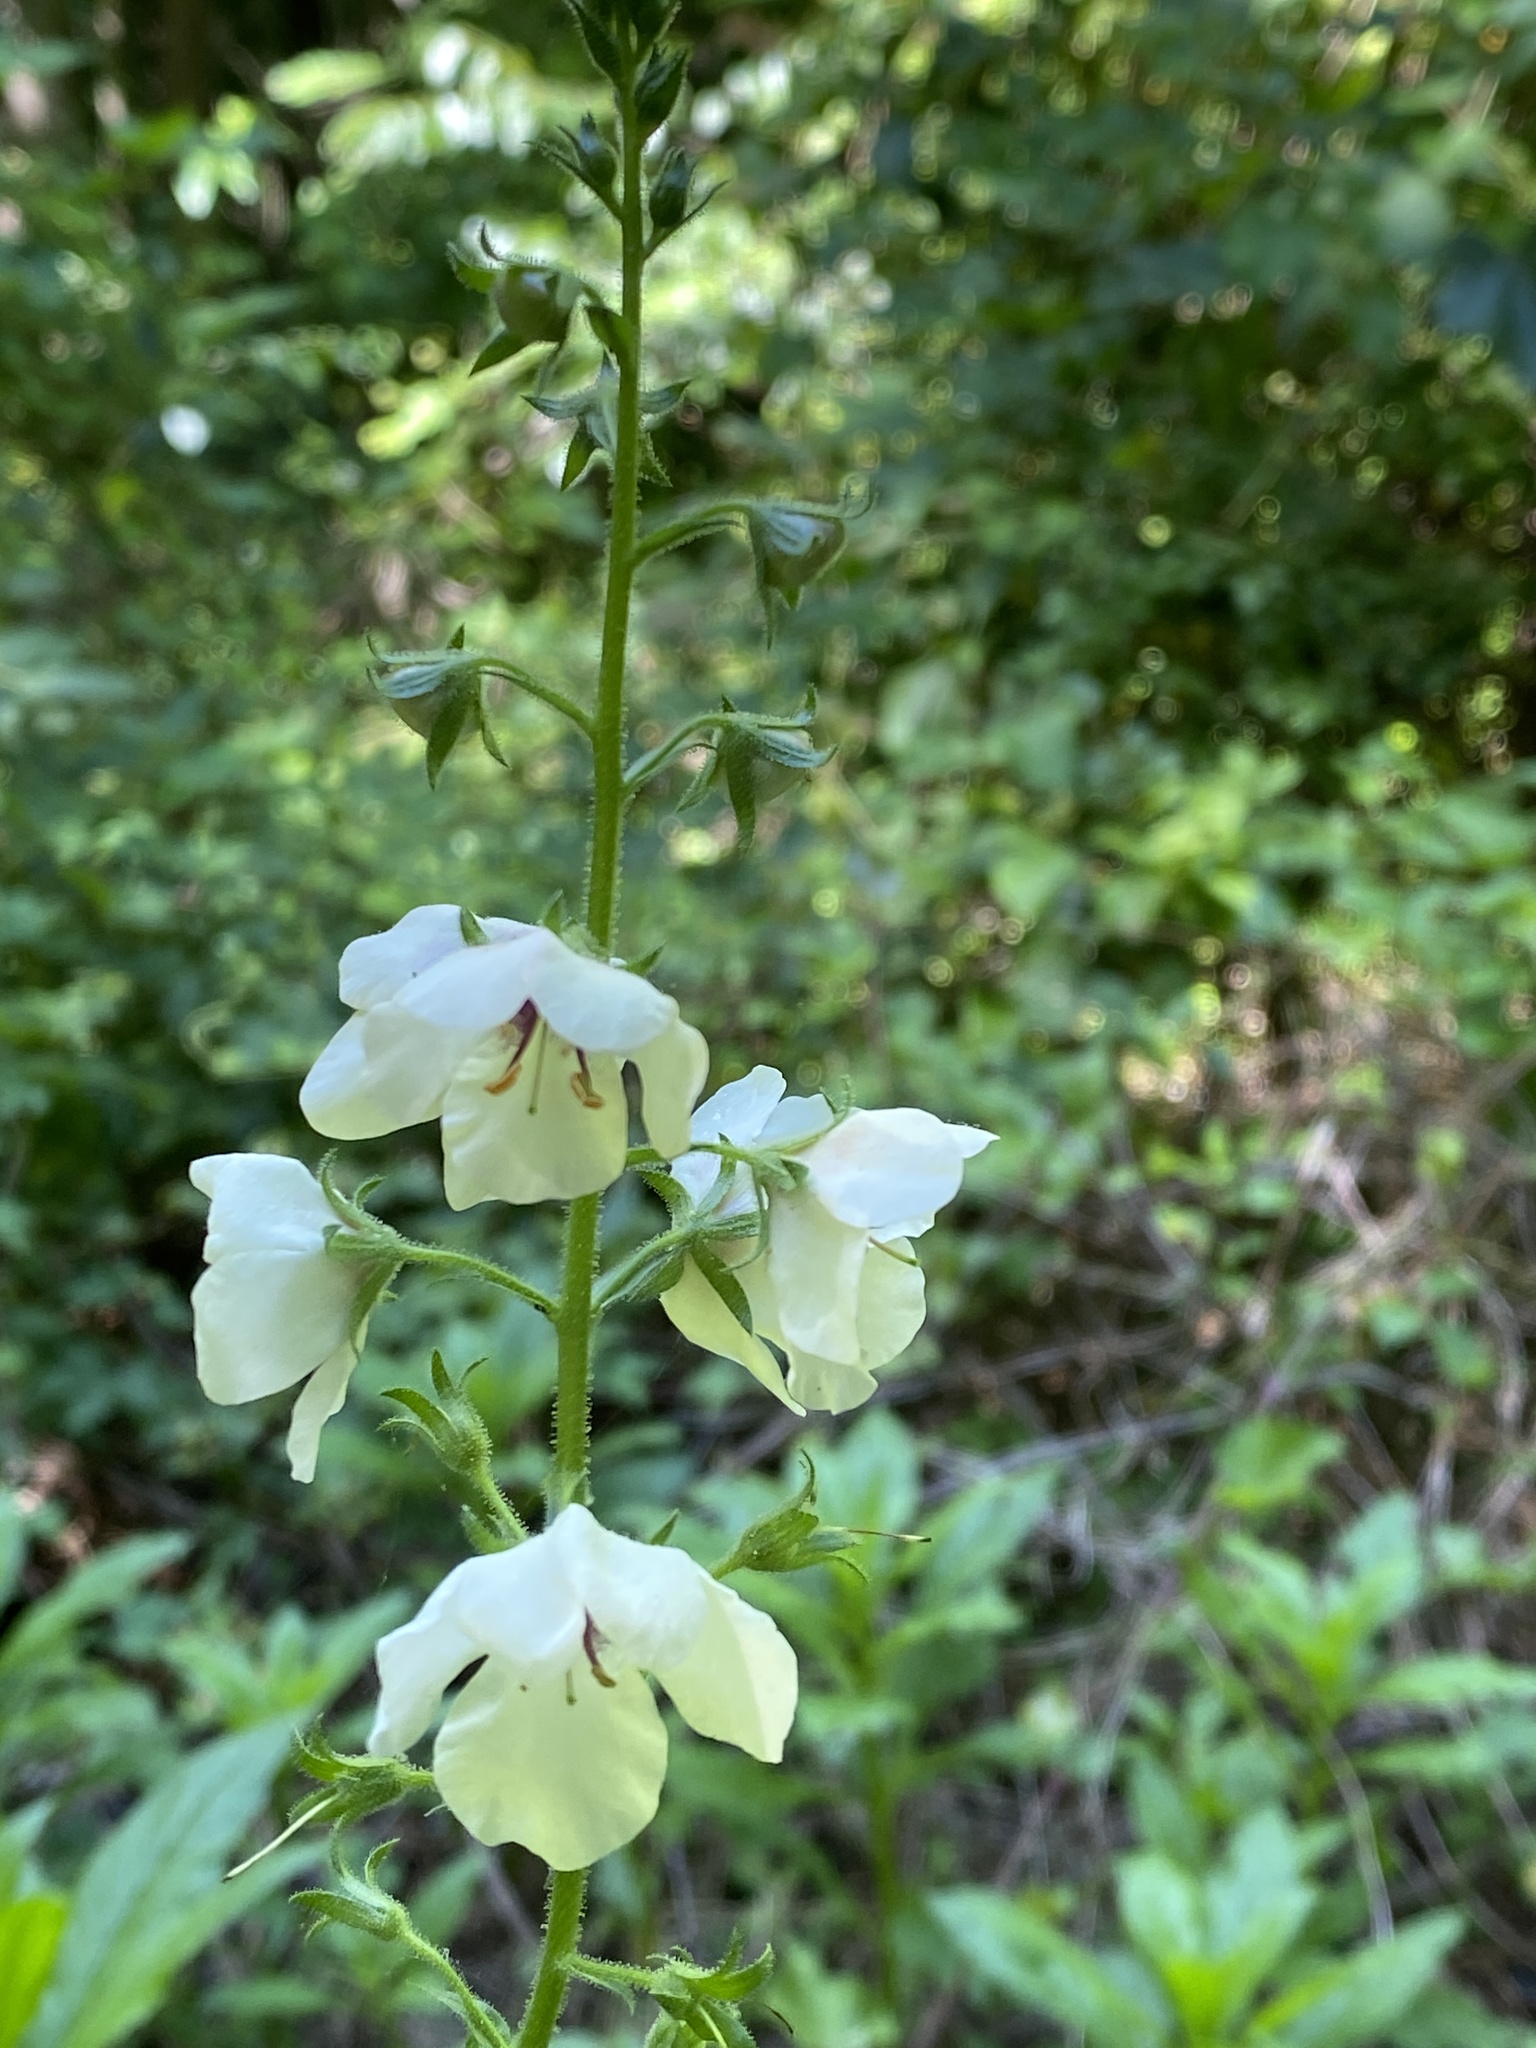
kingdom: Plantae
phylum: Tracheophyta
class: Magnoliopsida
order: Lamiales
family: Scrophulariaceae
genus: Verbascum
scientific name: Verbascum blattaria
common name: Moth mullein
